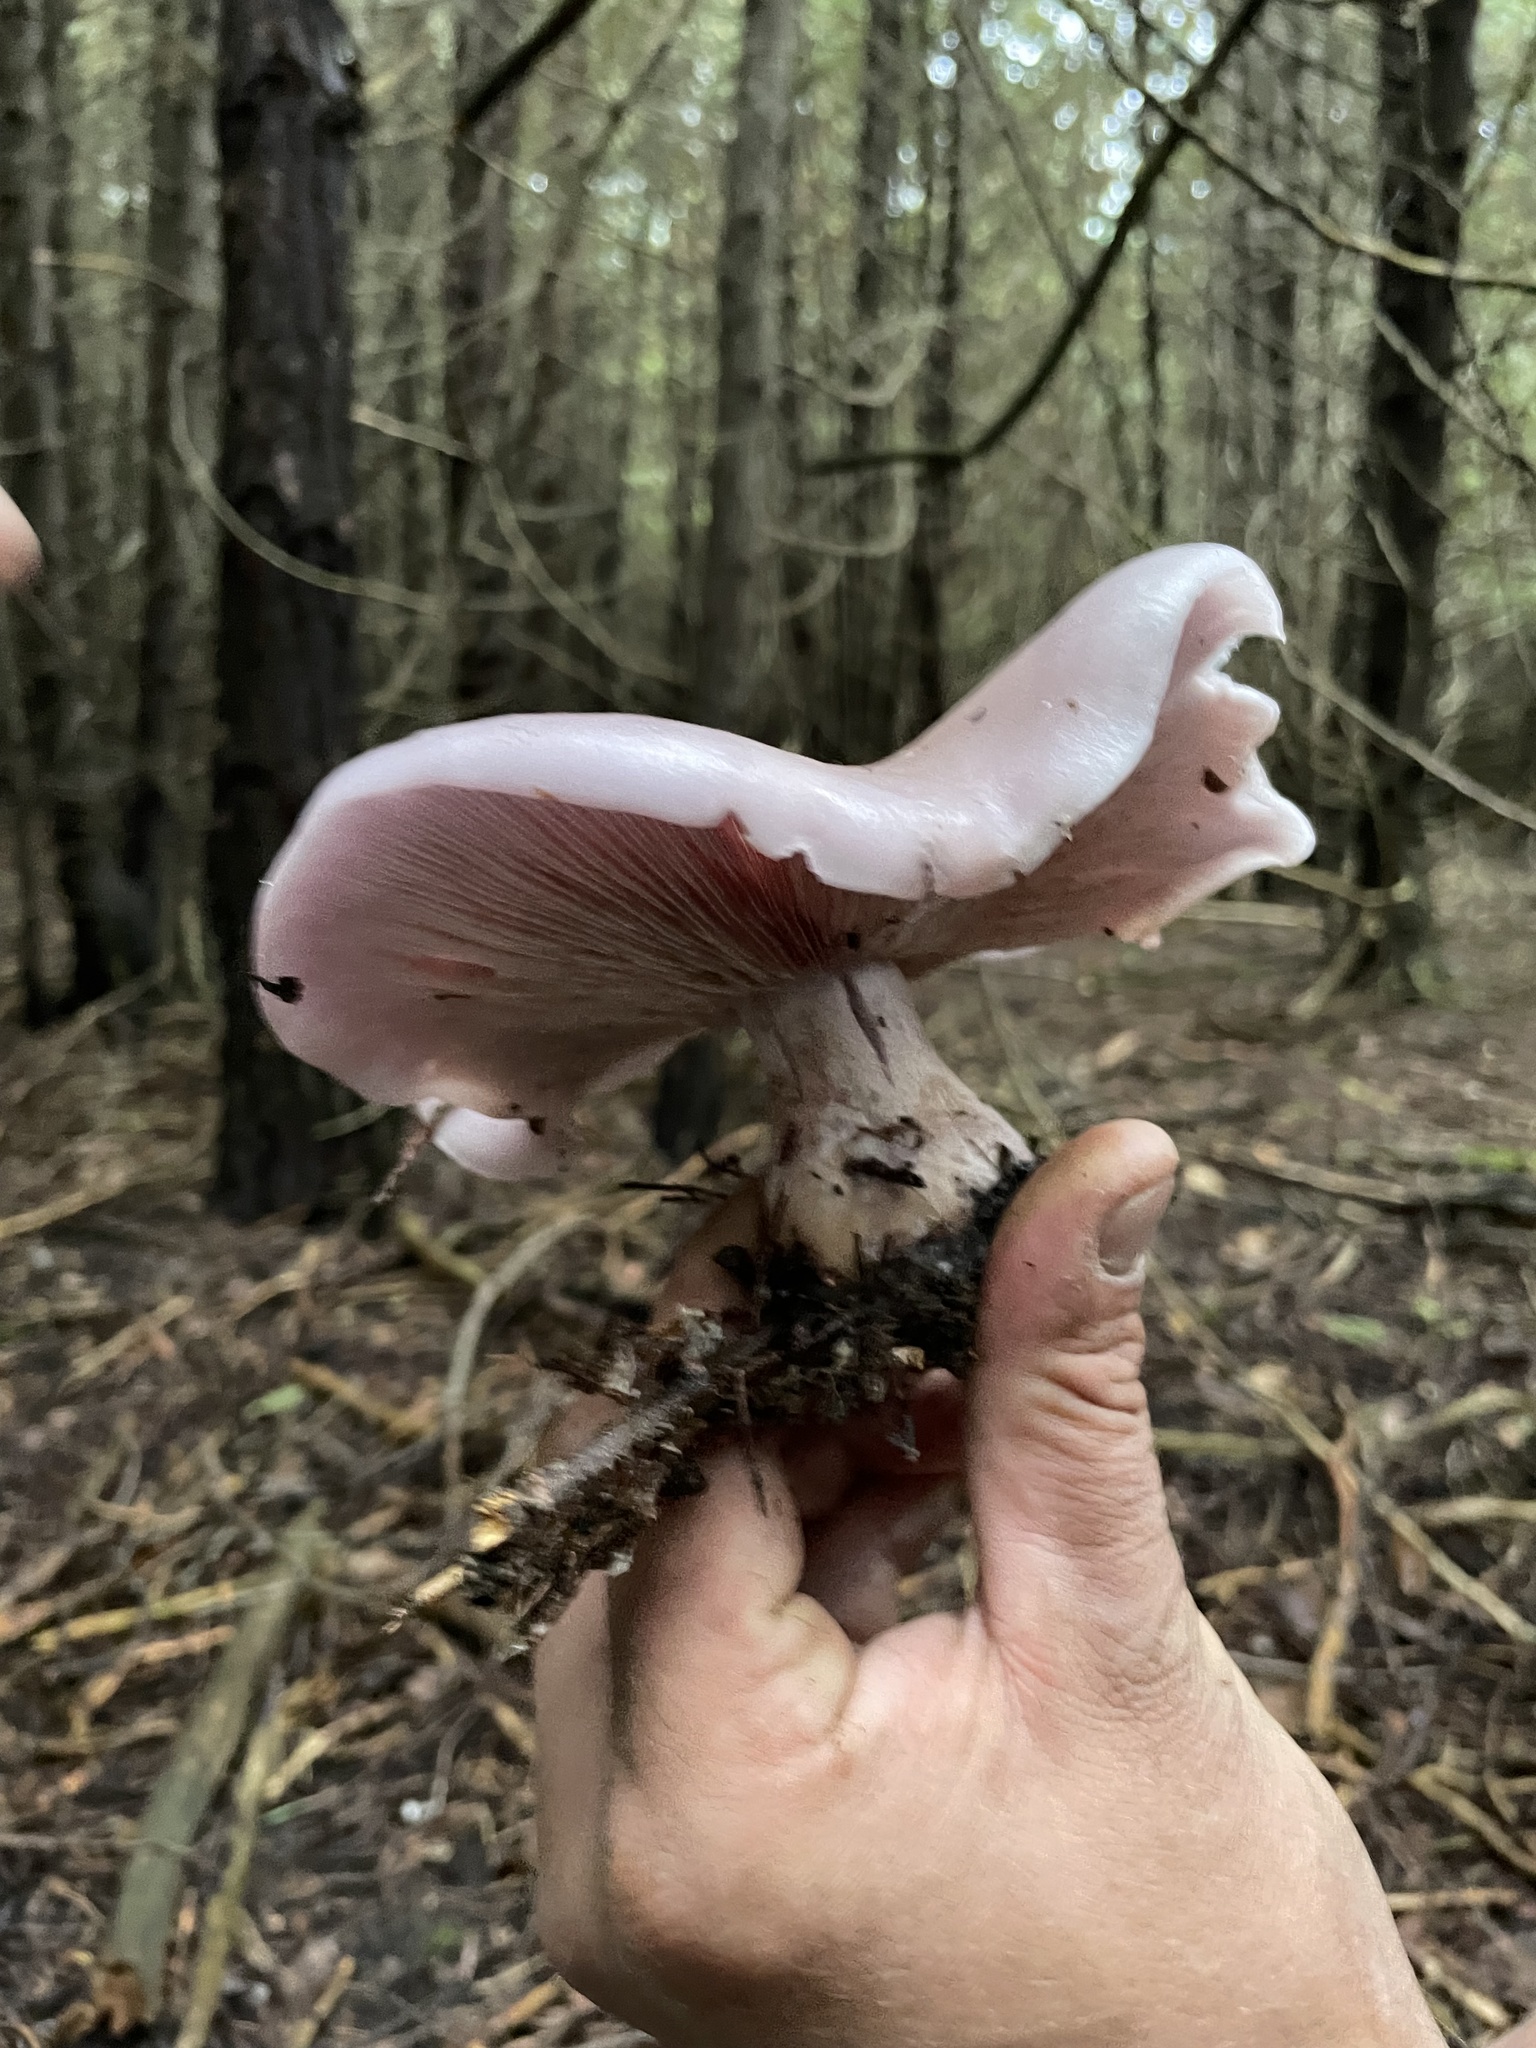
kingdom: Fungi
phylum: Basidiomycota
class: Agaricomycetes
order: Agaricales
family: Tricholomataceae
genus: Collybia
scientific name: Collybia
